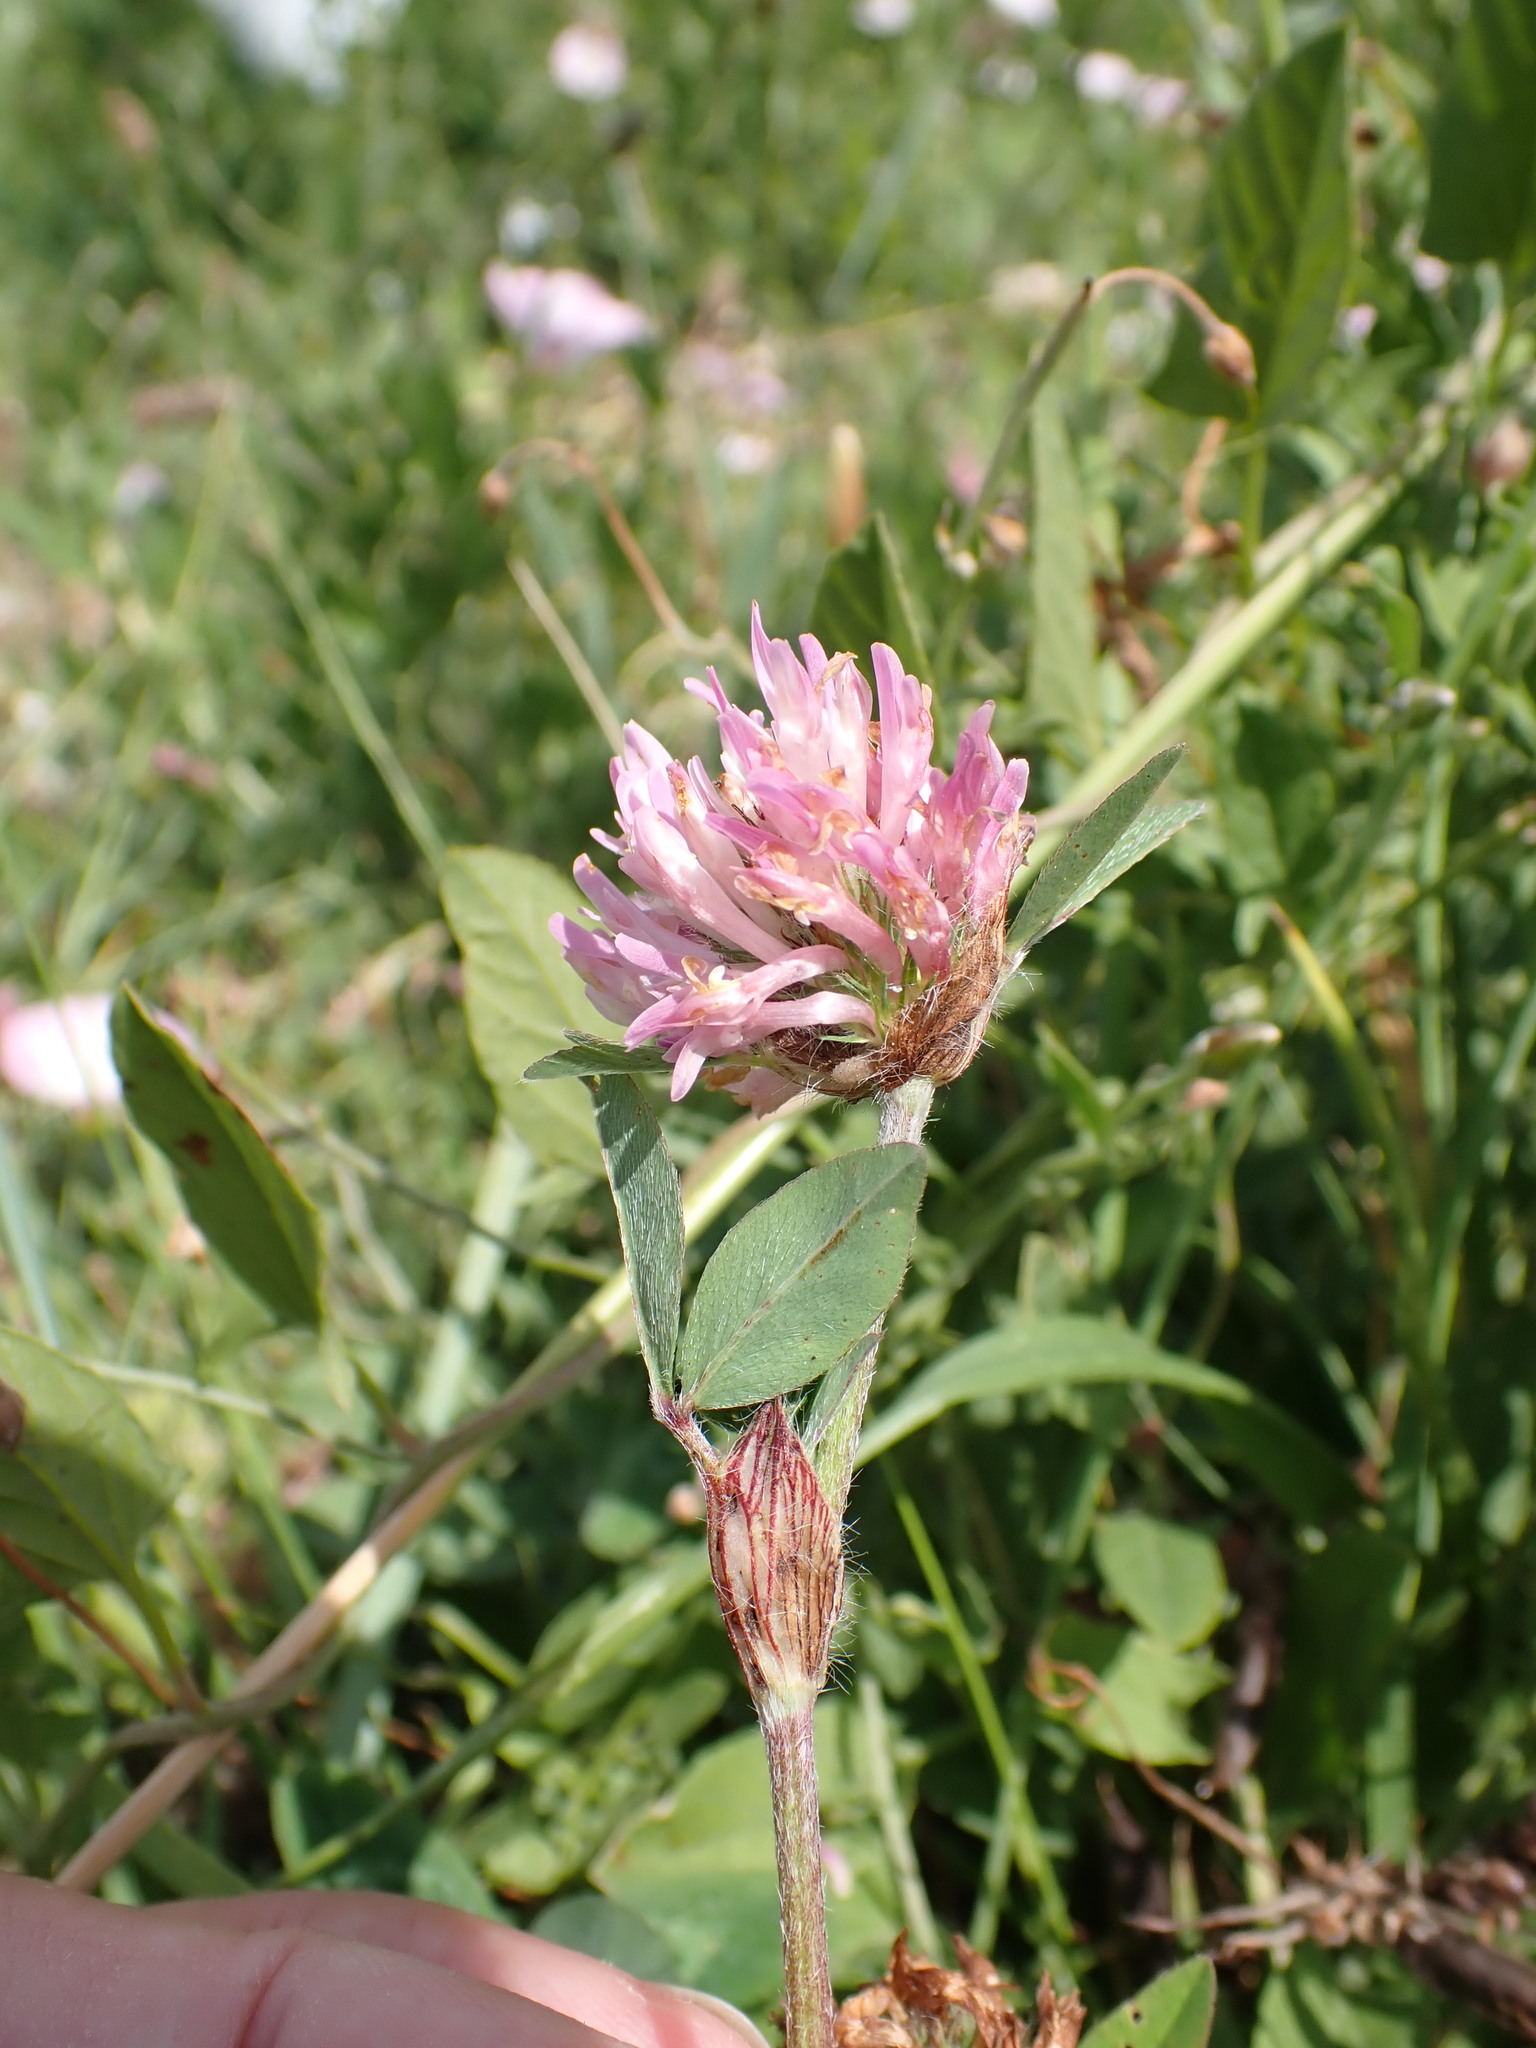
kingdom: Plantae
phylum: Tracheophyta
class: Magnoliopsida
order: Fabales
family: Fabaceae
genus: Trifolium
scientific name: Trifolium pratense
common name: Red clover
